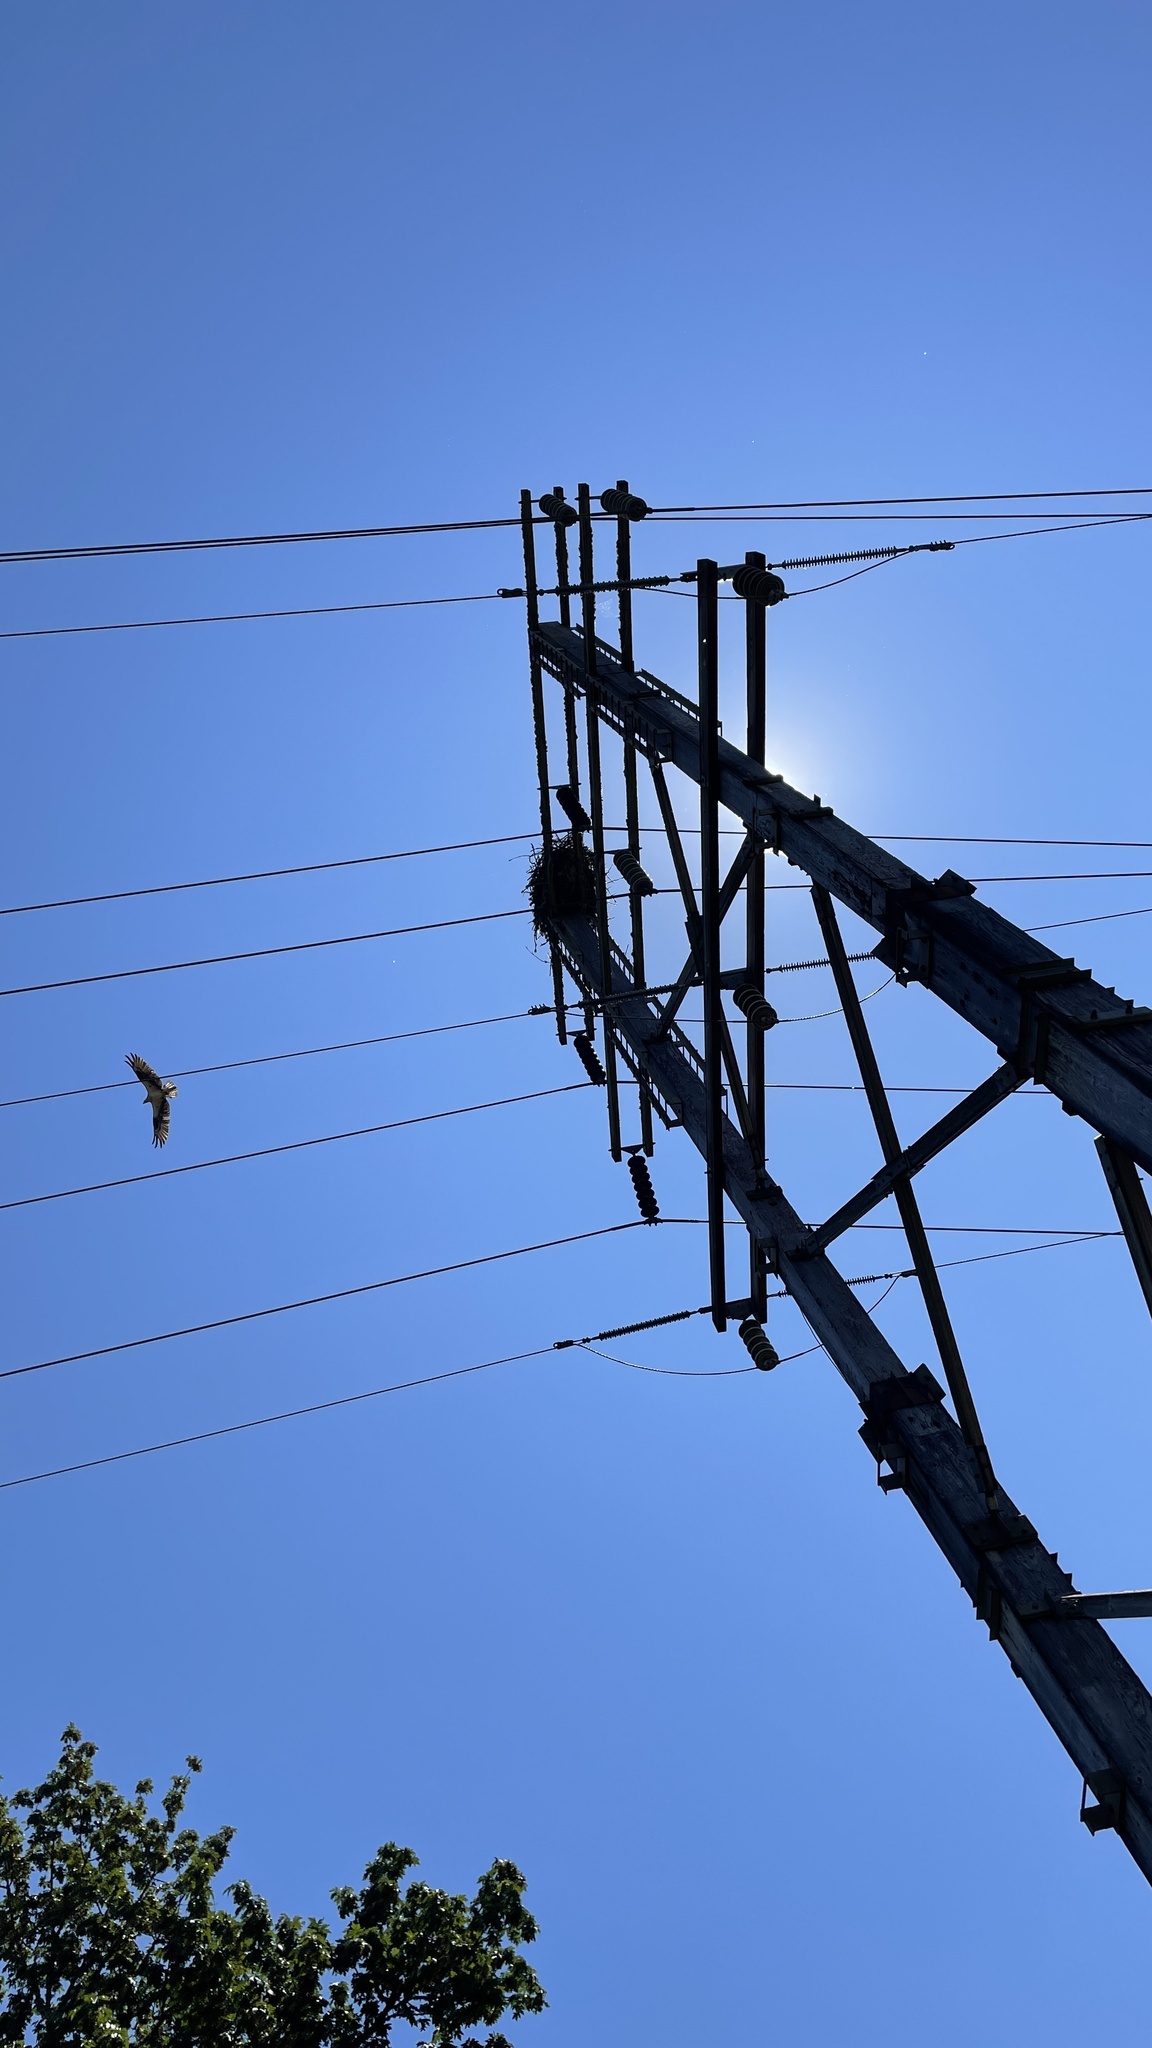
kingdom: Animalia
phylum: Chordata
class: Aves
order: Accipitriformes
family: Pandionidae
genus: Pandion
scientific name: Pandion haliaetus
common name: Osprey
